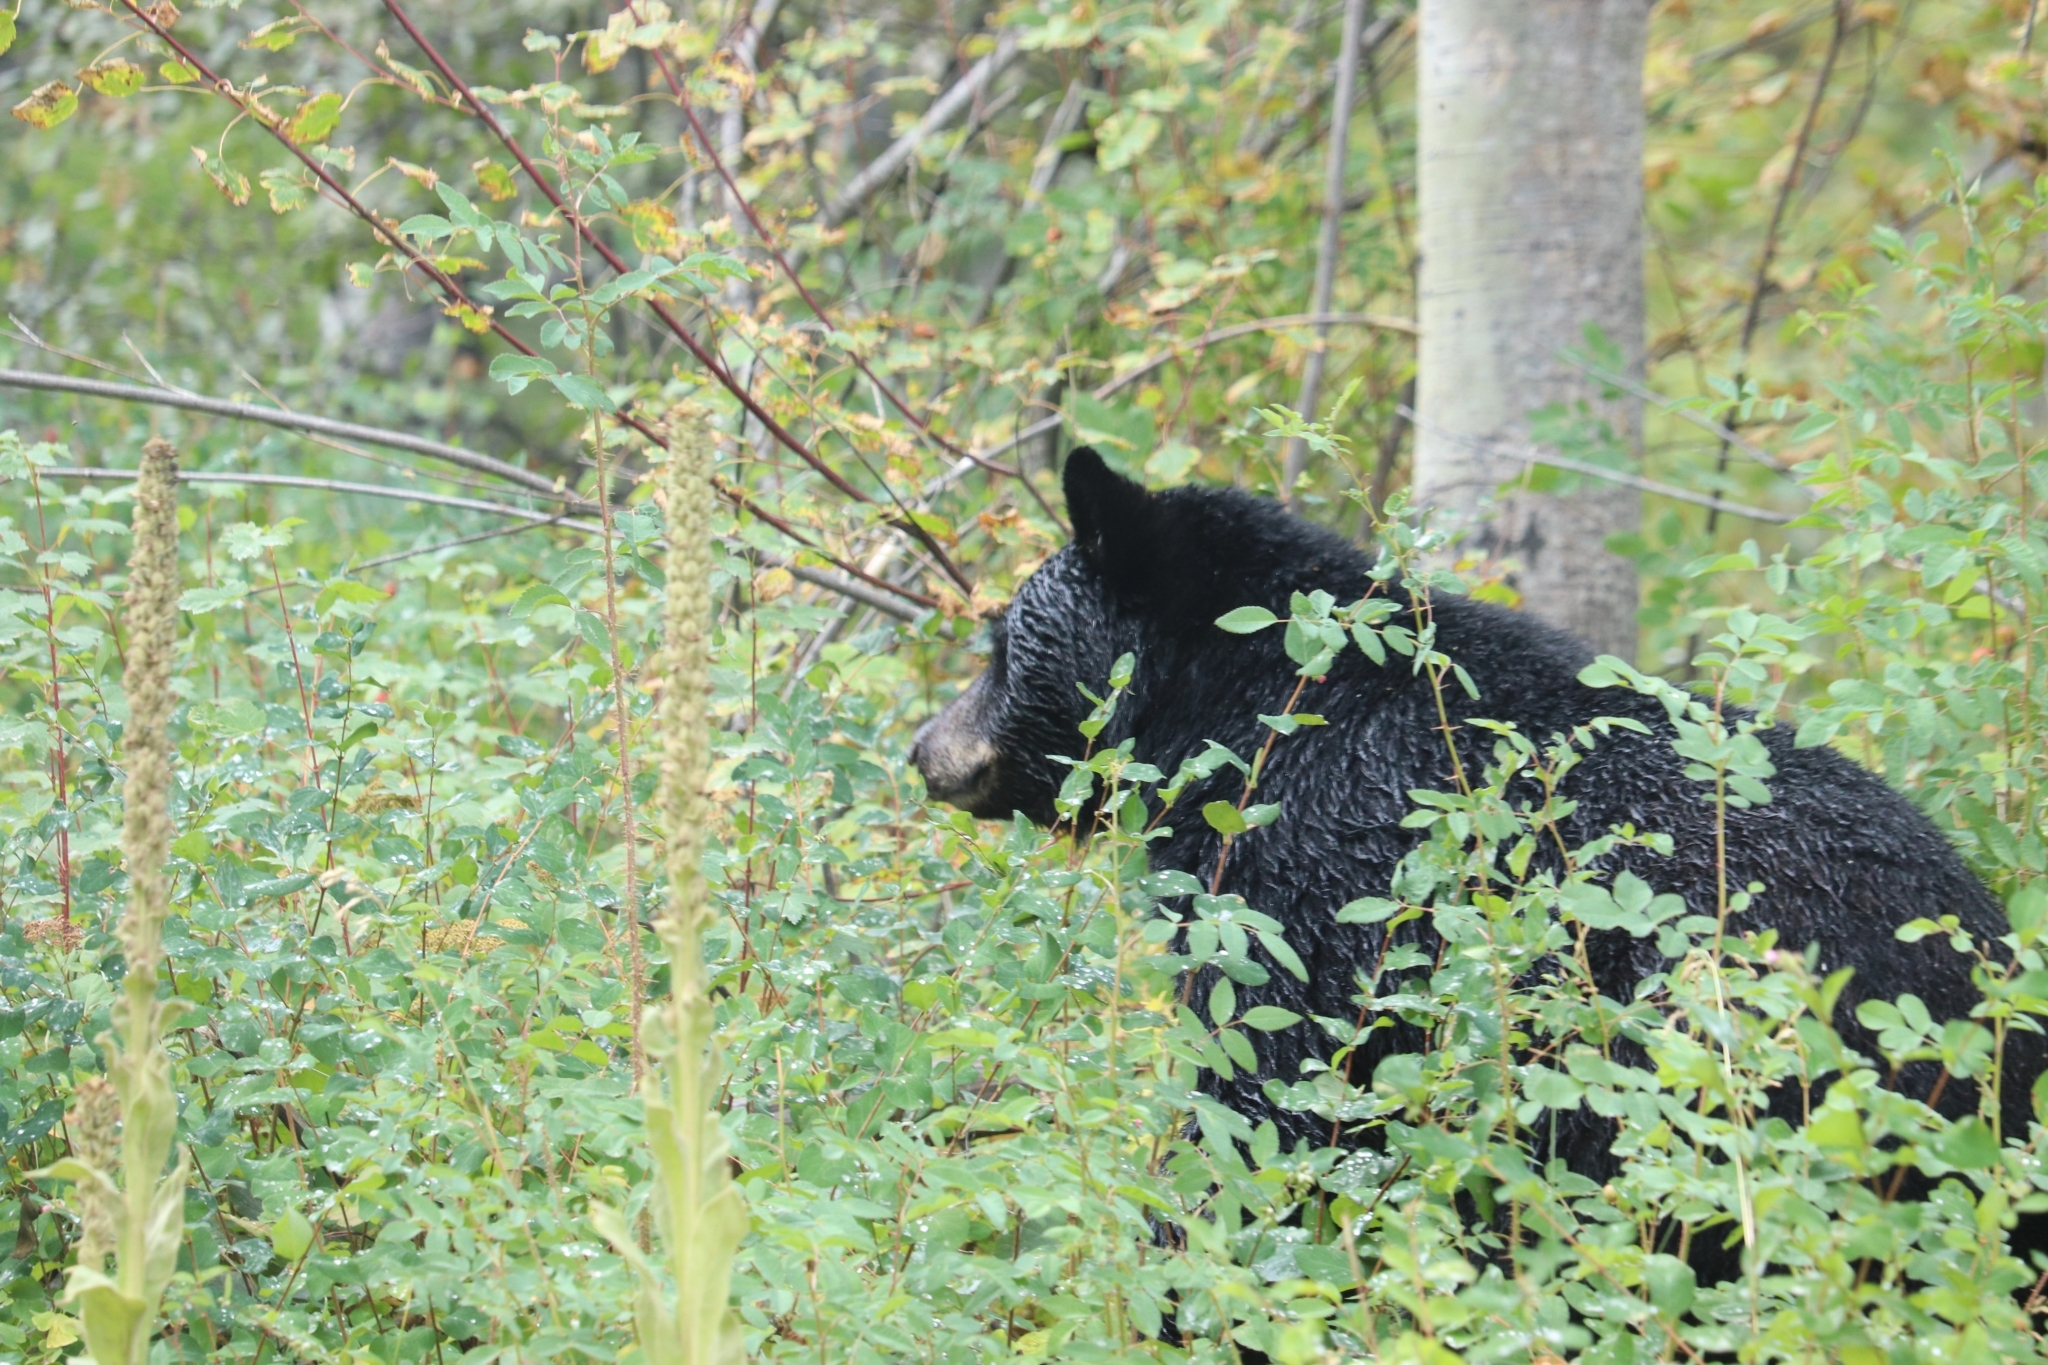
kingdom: Animalia
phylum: Chordata
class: Mammalia
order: Carnivora
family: Ursidae
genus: Ursus
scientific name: Ursus americanus
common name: American black bear
